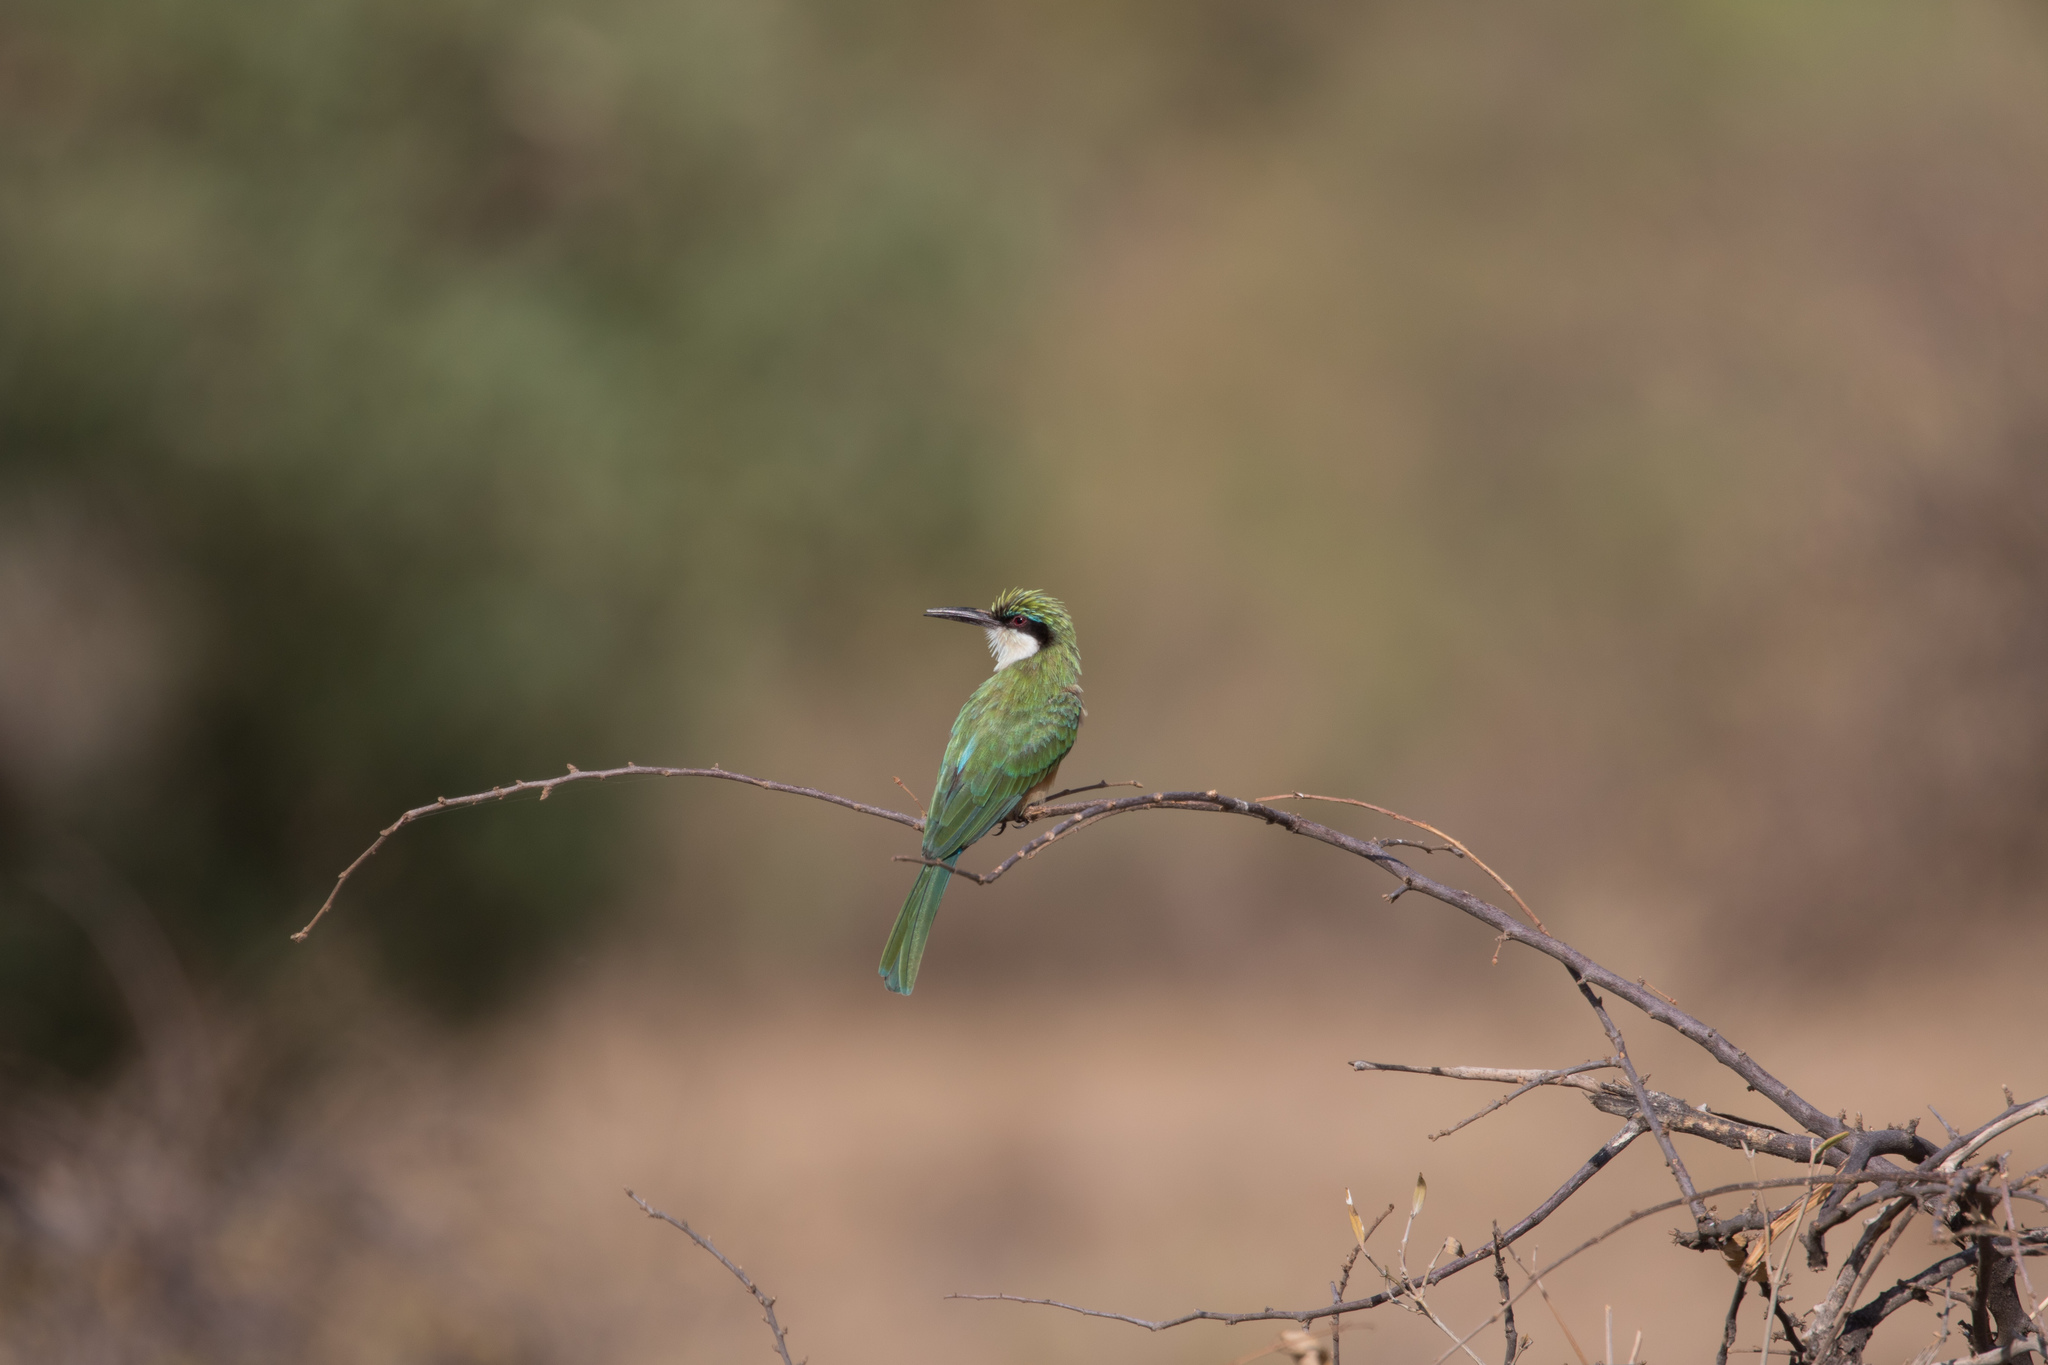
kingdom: Animalia
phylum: Chordata
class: Aves
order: Coraciiformes
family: Meropidae
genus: Merops
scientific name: Merops revoilii
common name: Somali bee-eater
